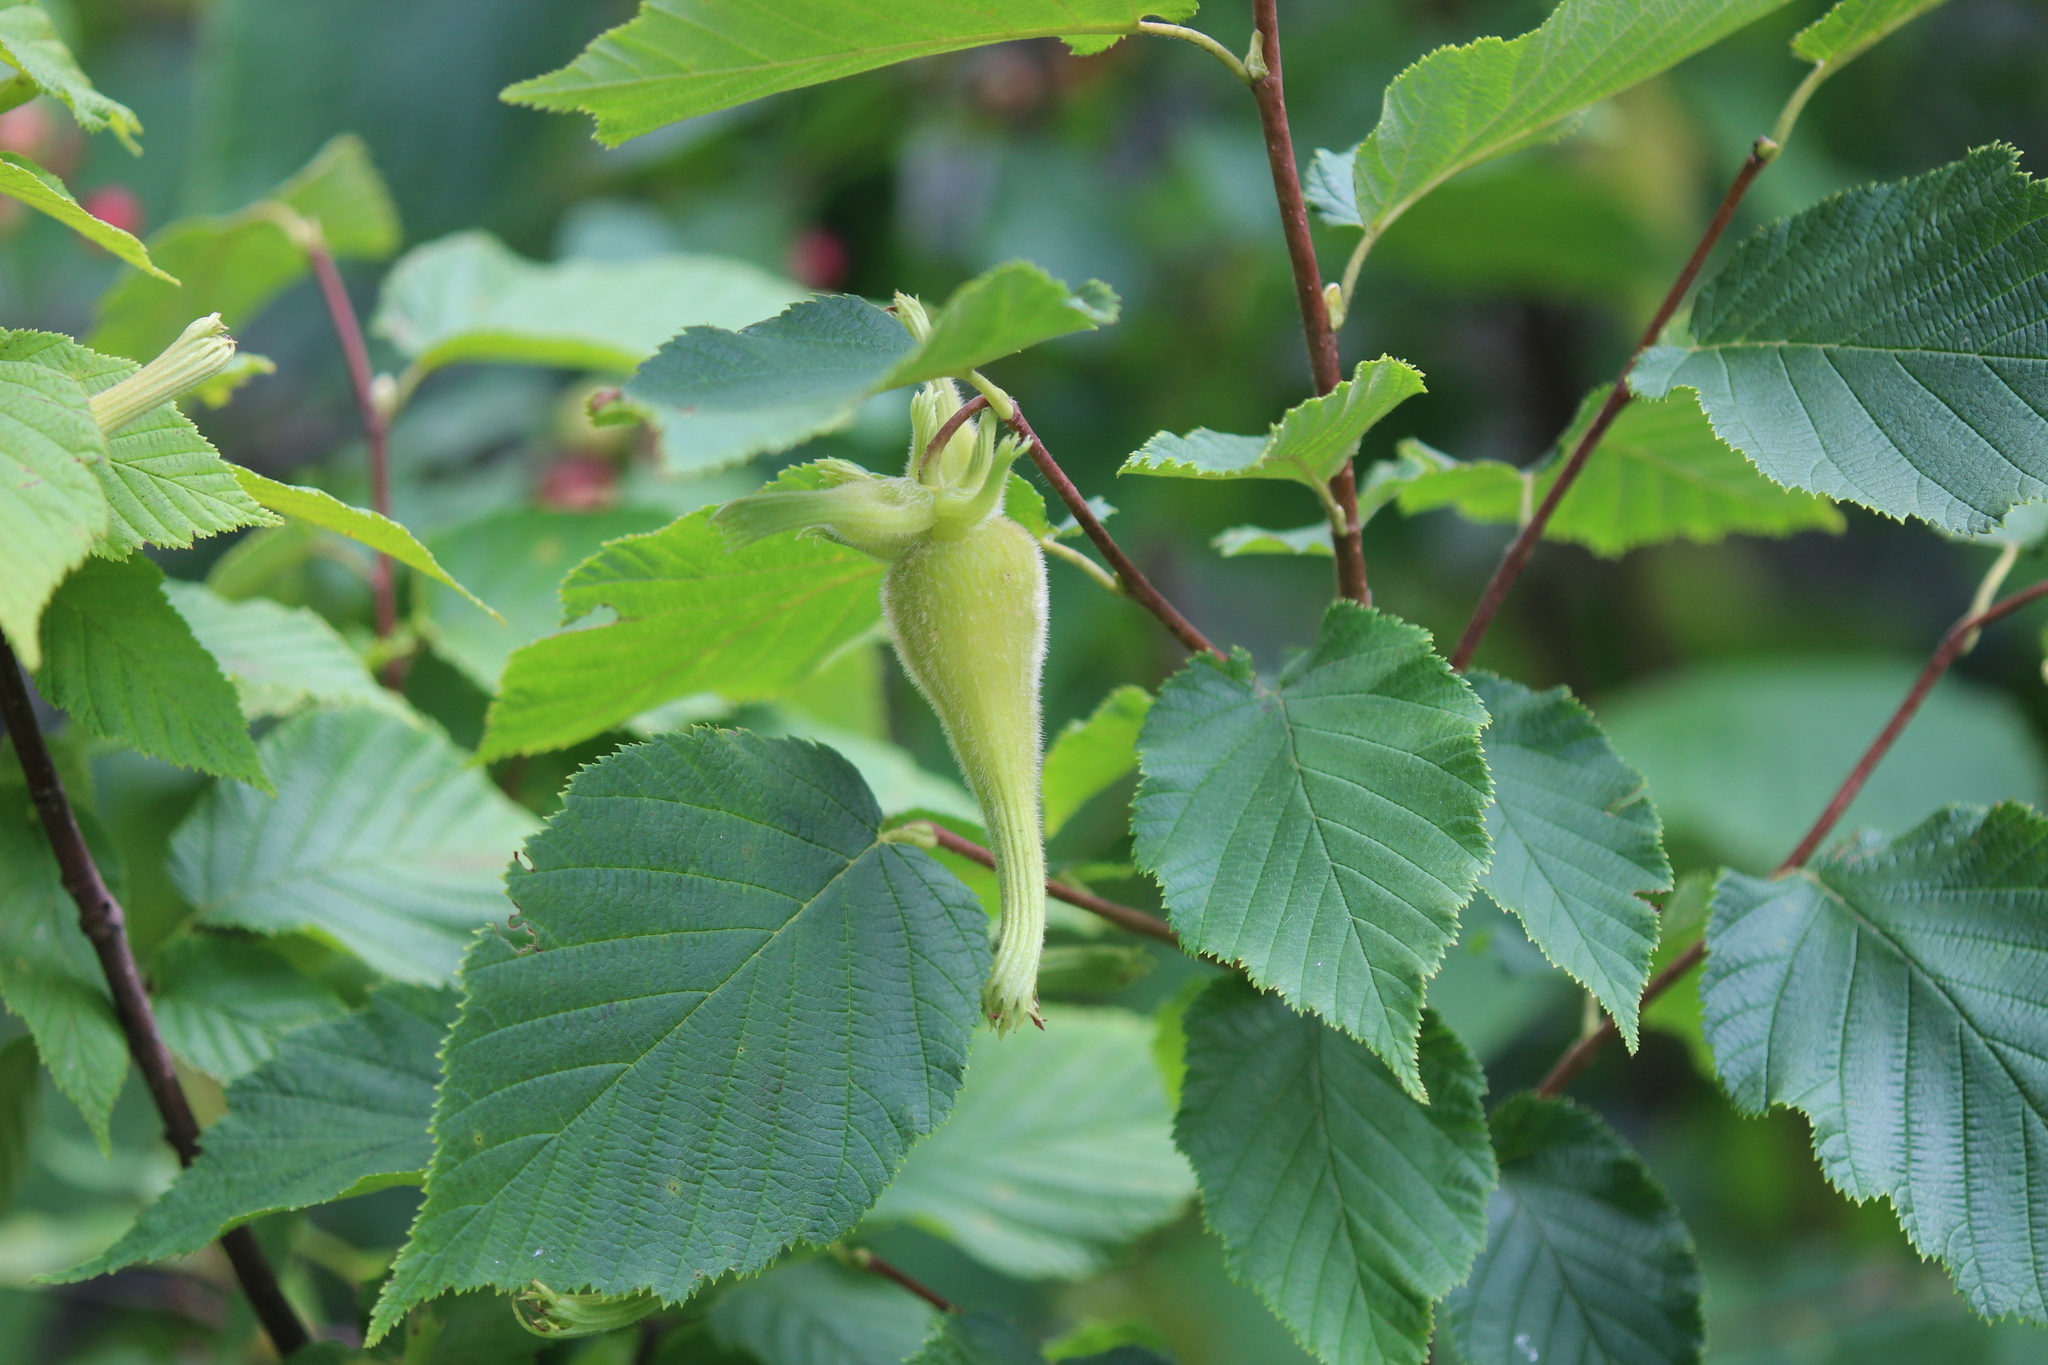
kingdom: Plantae
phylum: Tracheophyta
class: Magnoliopsida
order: Fagales
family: Betulaceae
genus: Corylus
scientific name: Corylus cornuta
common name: Beaked hazel
